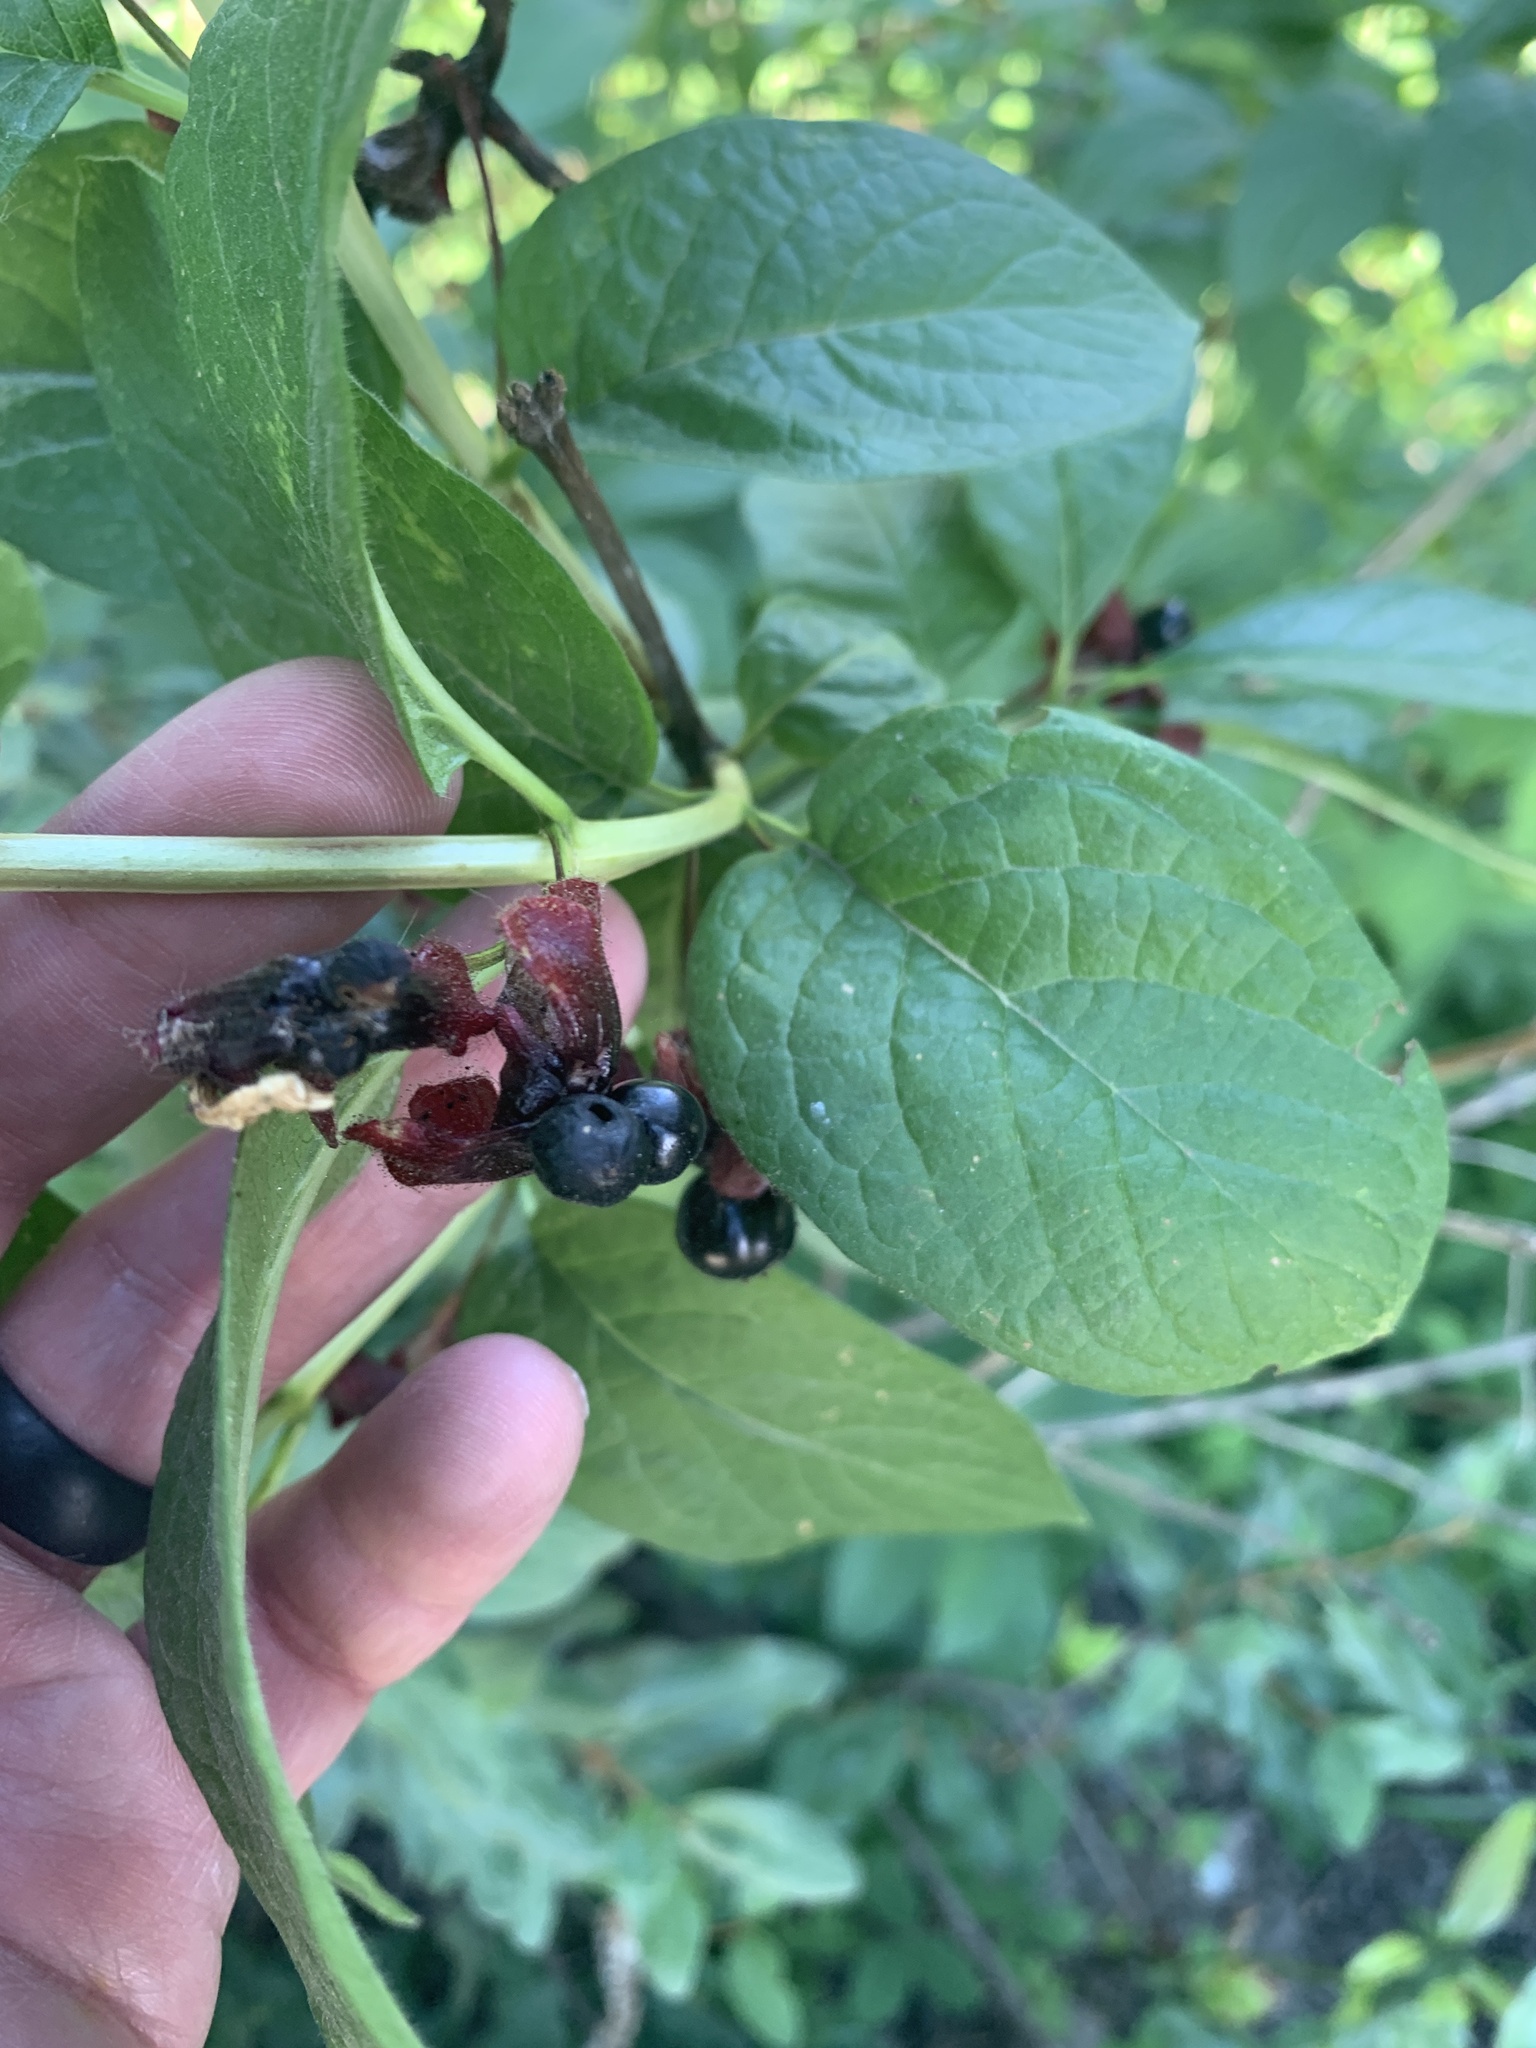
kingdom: Plantae
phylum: Tracheophyta
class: Magnoliopsida
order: Dipsacales
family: Caprifoliaceae
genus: Lonicera
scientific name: Lonicera involucrata
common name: Californian honeysuckle
